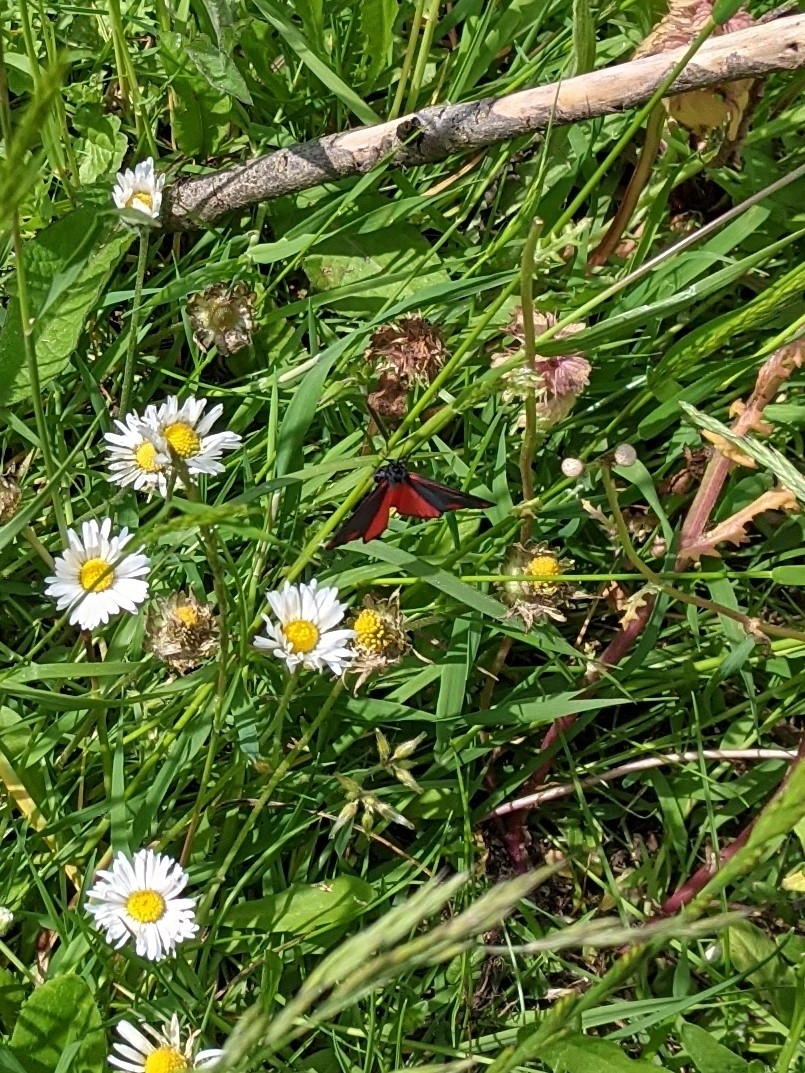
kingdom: Animalia
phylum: Arthropoda
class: Insecta
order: Lepidoptera
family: Erebidae
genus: Tyria
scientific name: Tyria jacobaeae
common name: Cinnabar
